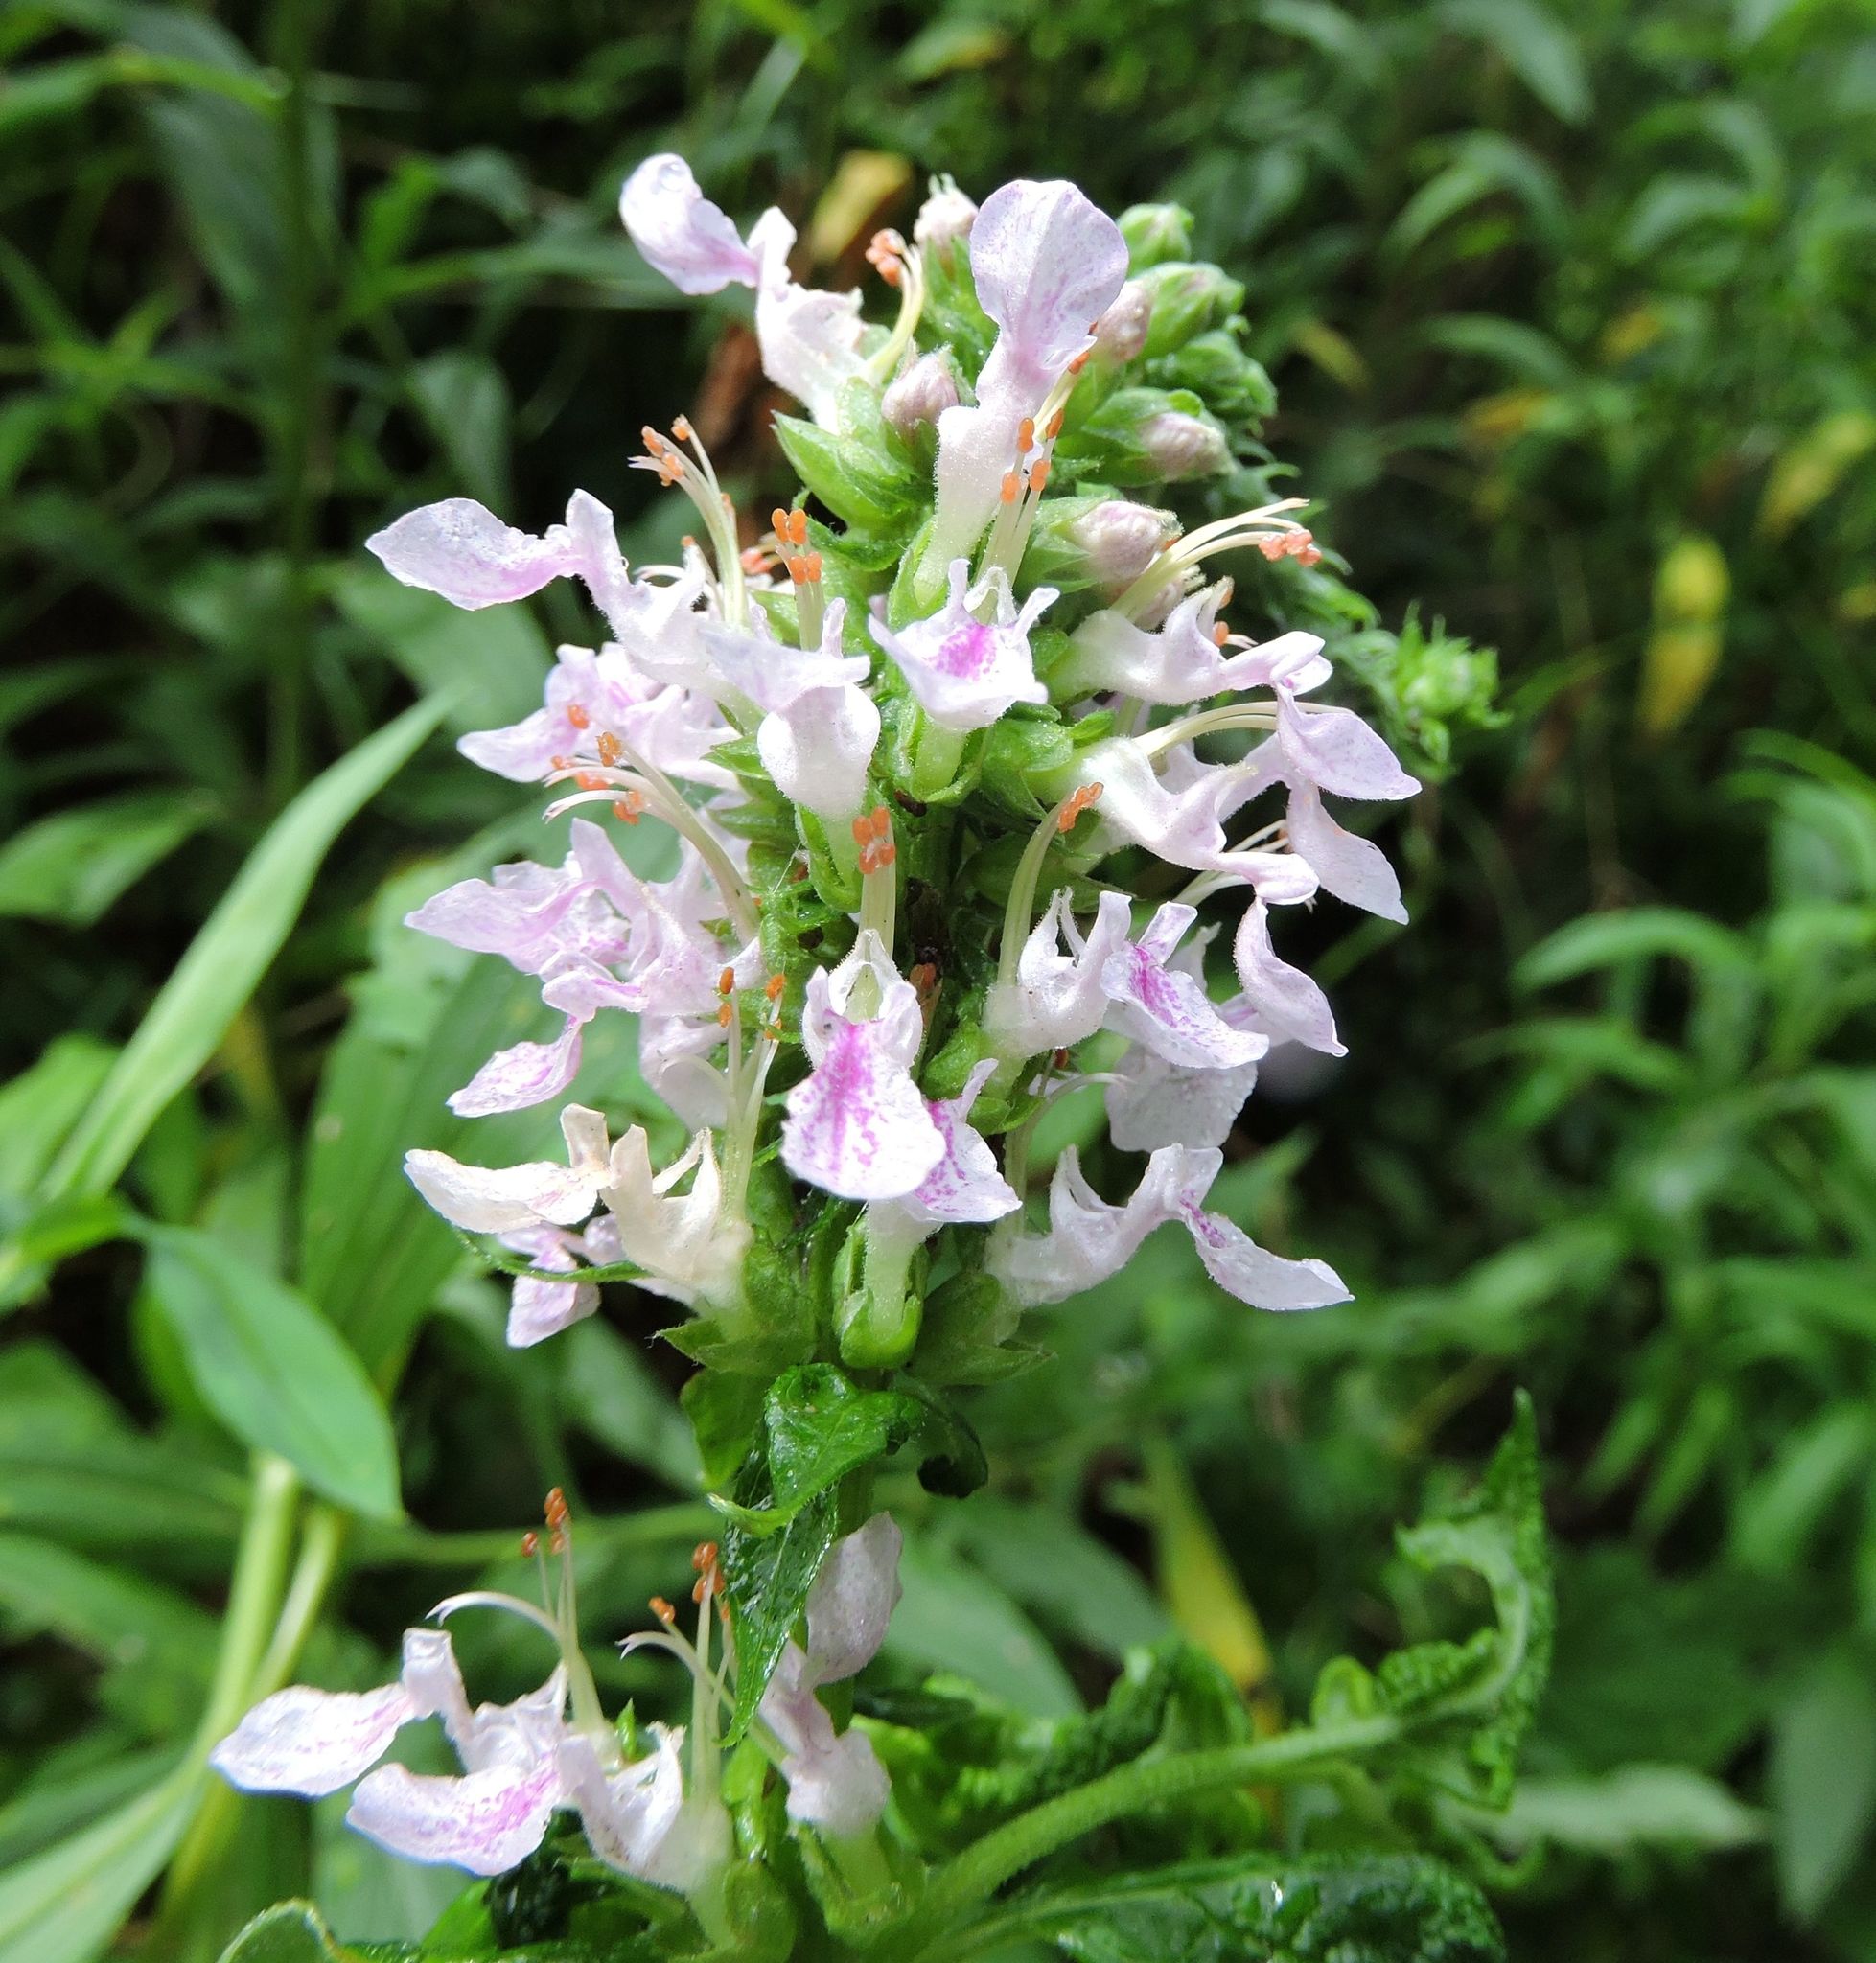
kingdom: Plantae
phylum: Tracheophyta
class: Magnoliopsida
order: Lamiales
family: Lamiaceae
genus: Teucrium
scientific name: Teucrium canadense
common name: American germander
